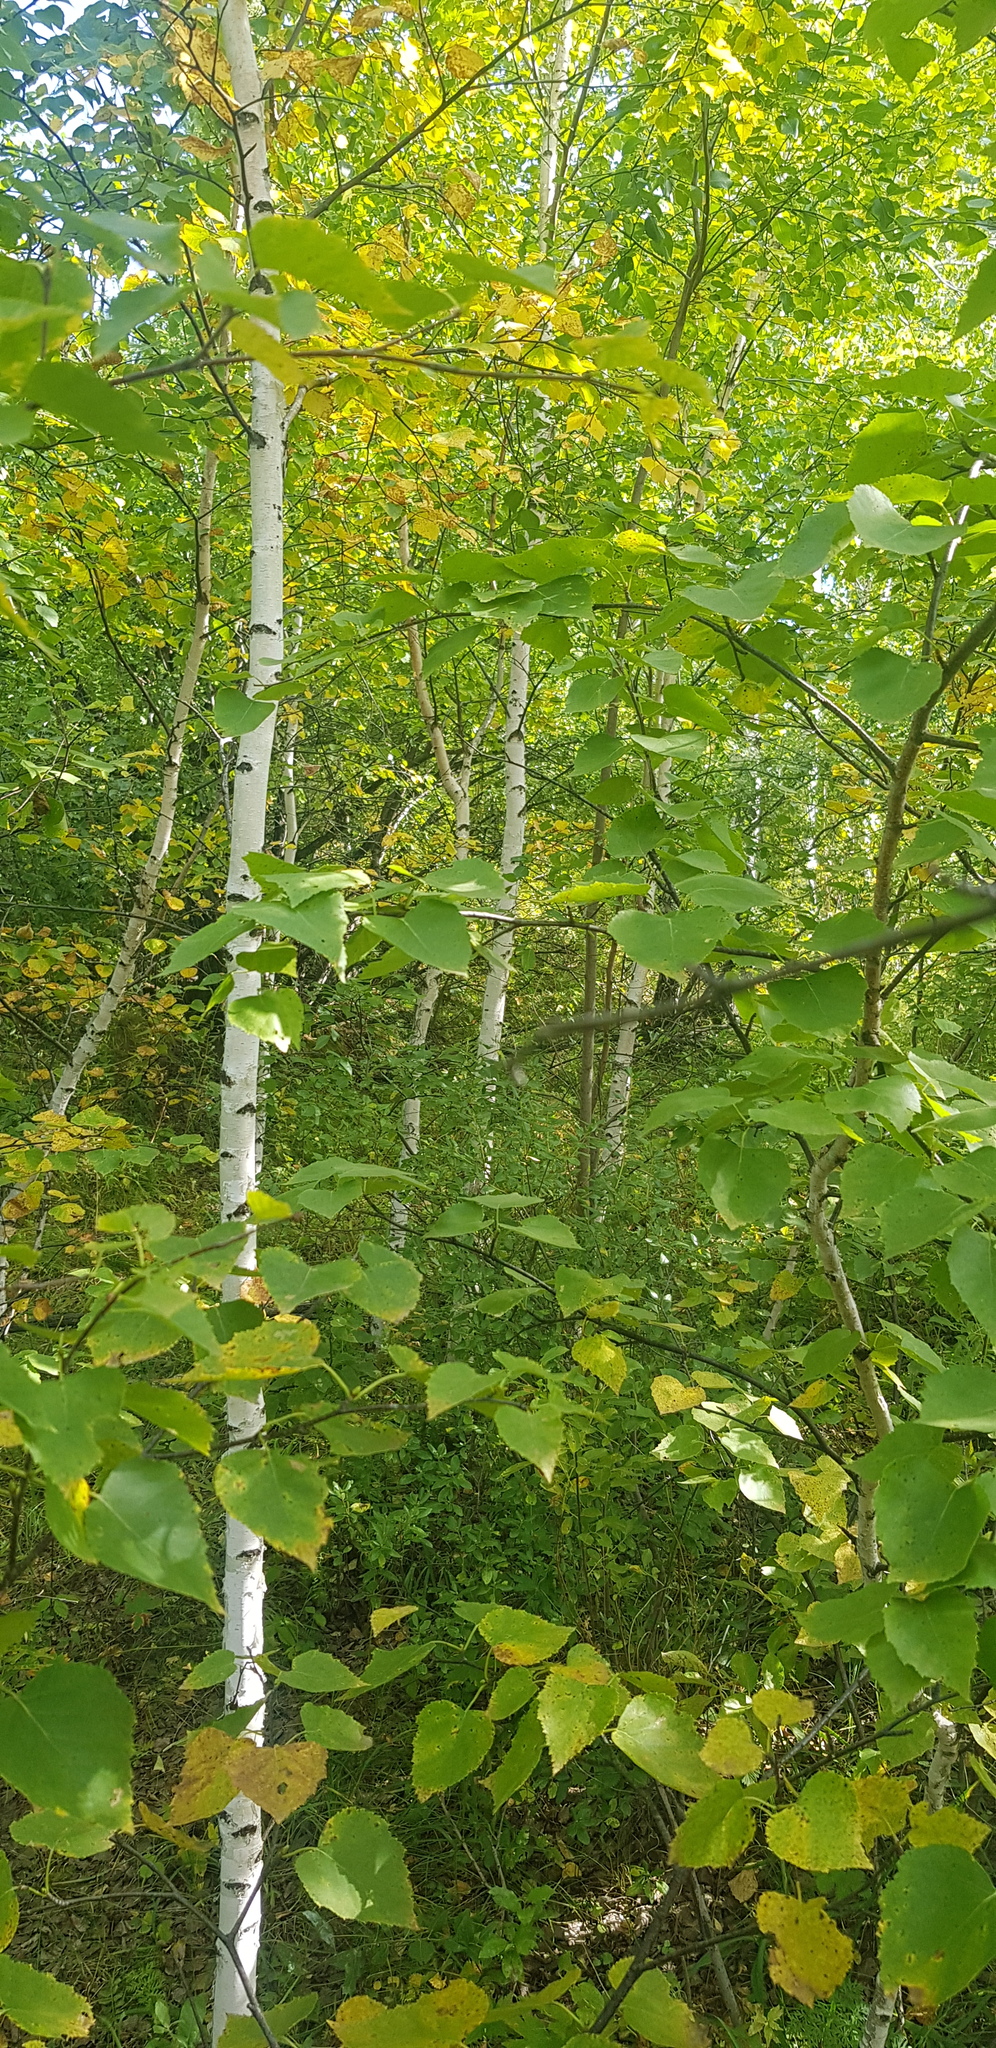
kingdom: Plantae
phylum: Tracheophyta
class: Magnoliopsida
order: Fagales
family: Betulaceae
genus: Betula
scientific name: Betula pendula
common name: Silver birch
